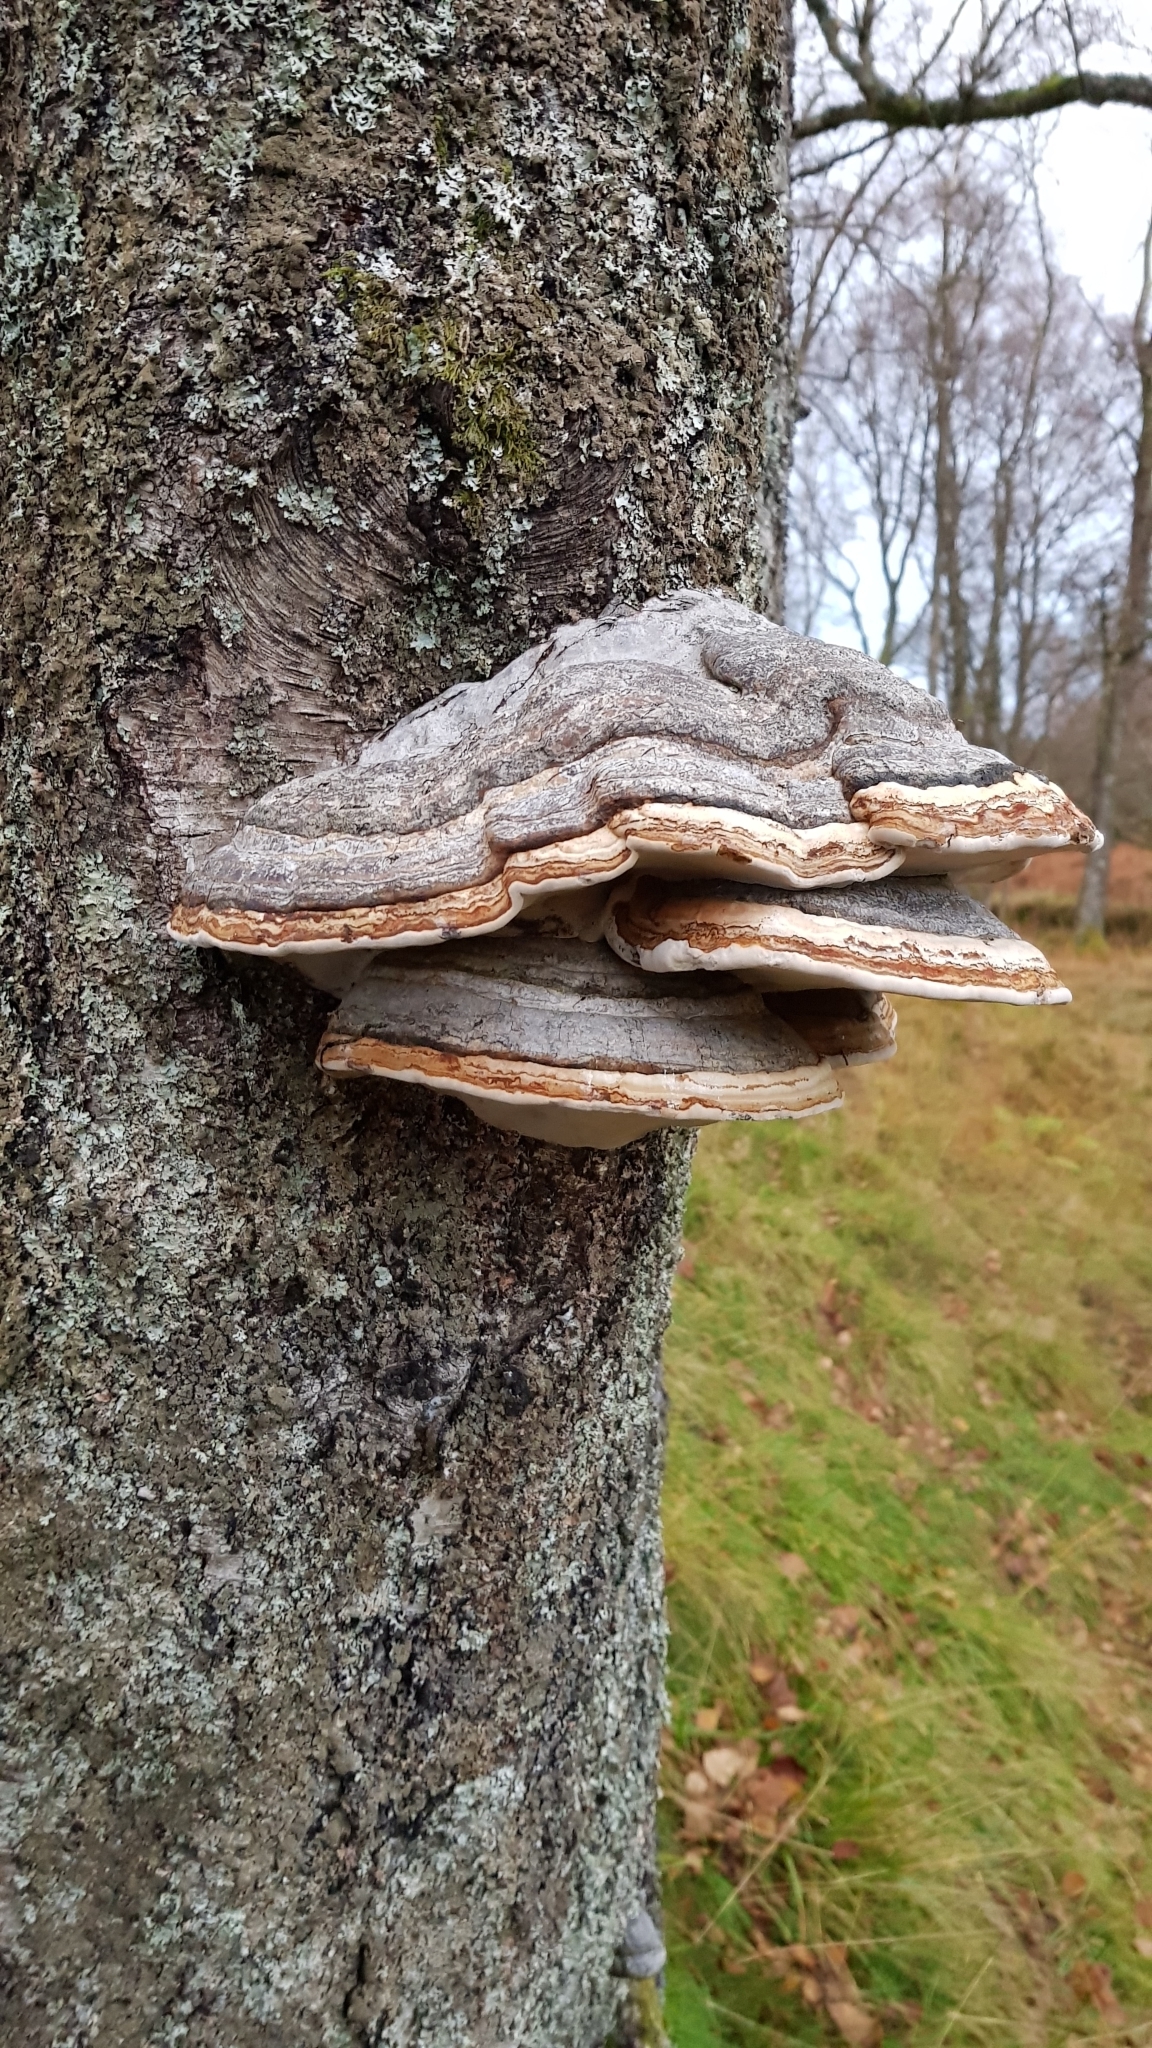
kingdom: Fungi
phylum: Basidiomycota
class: Agaricomycetes
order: Polyporales
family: Polyporaceae
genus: Fomes
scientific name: Fomes fomentarius
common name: Hoof fungus
